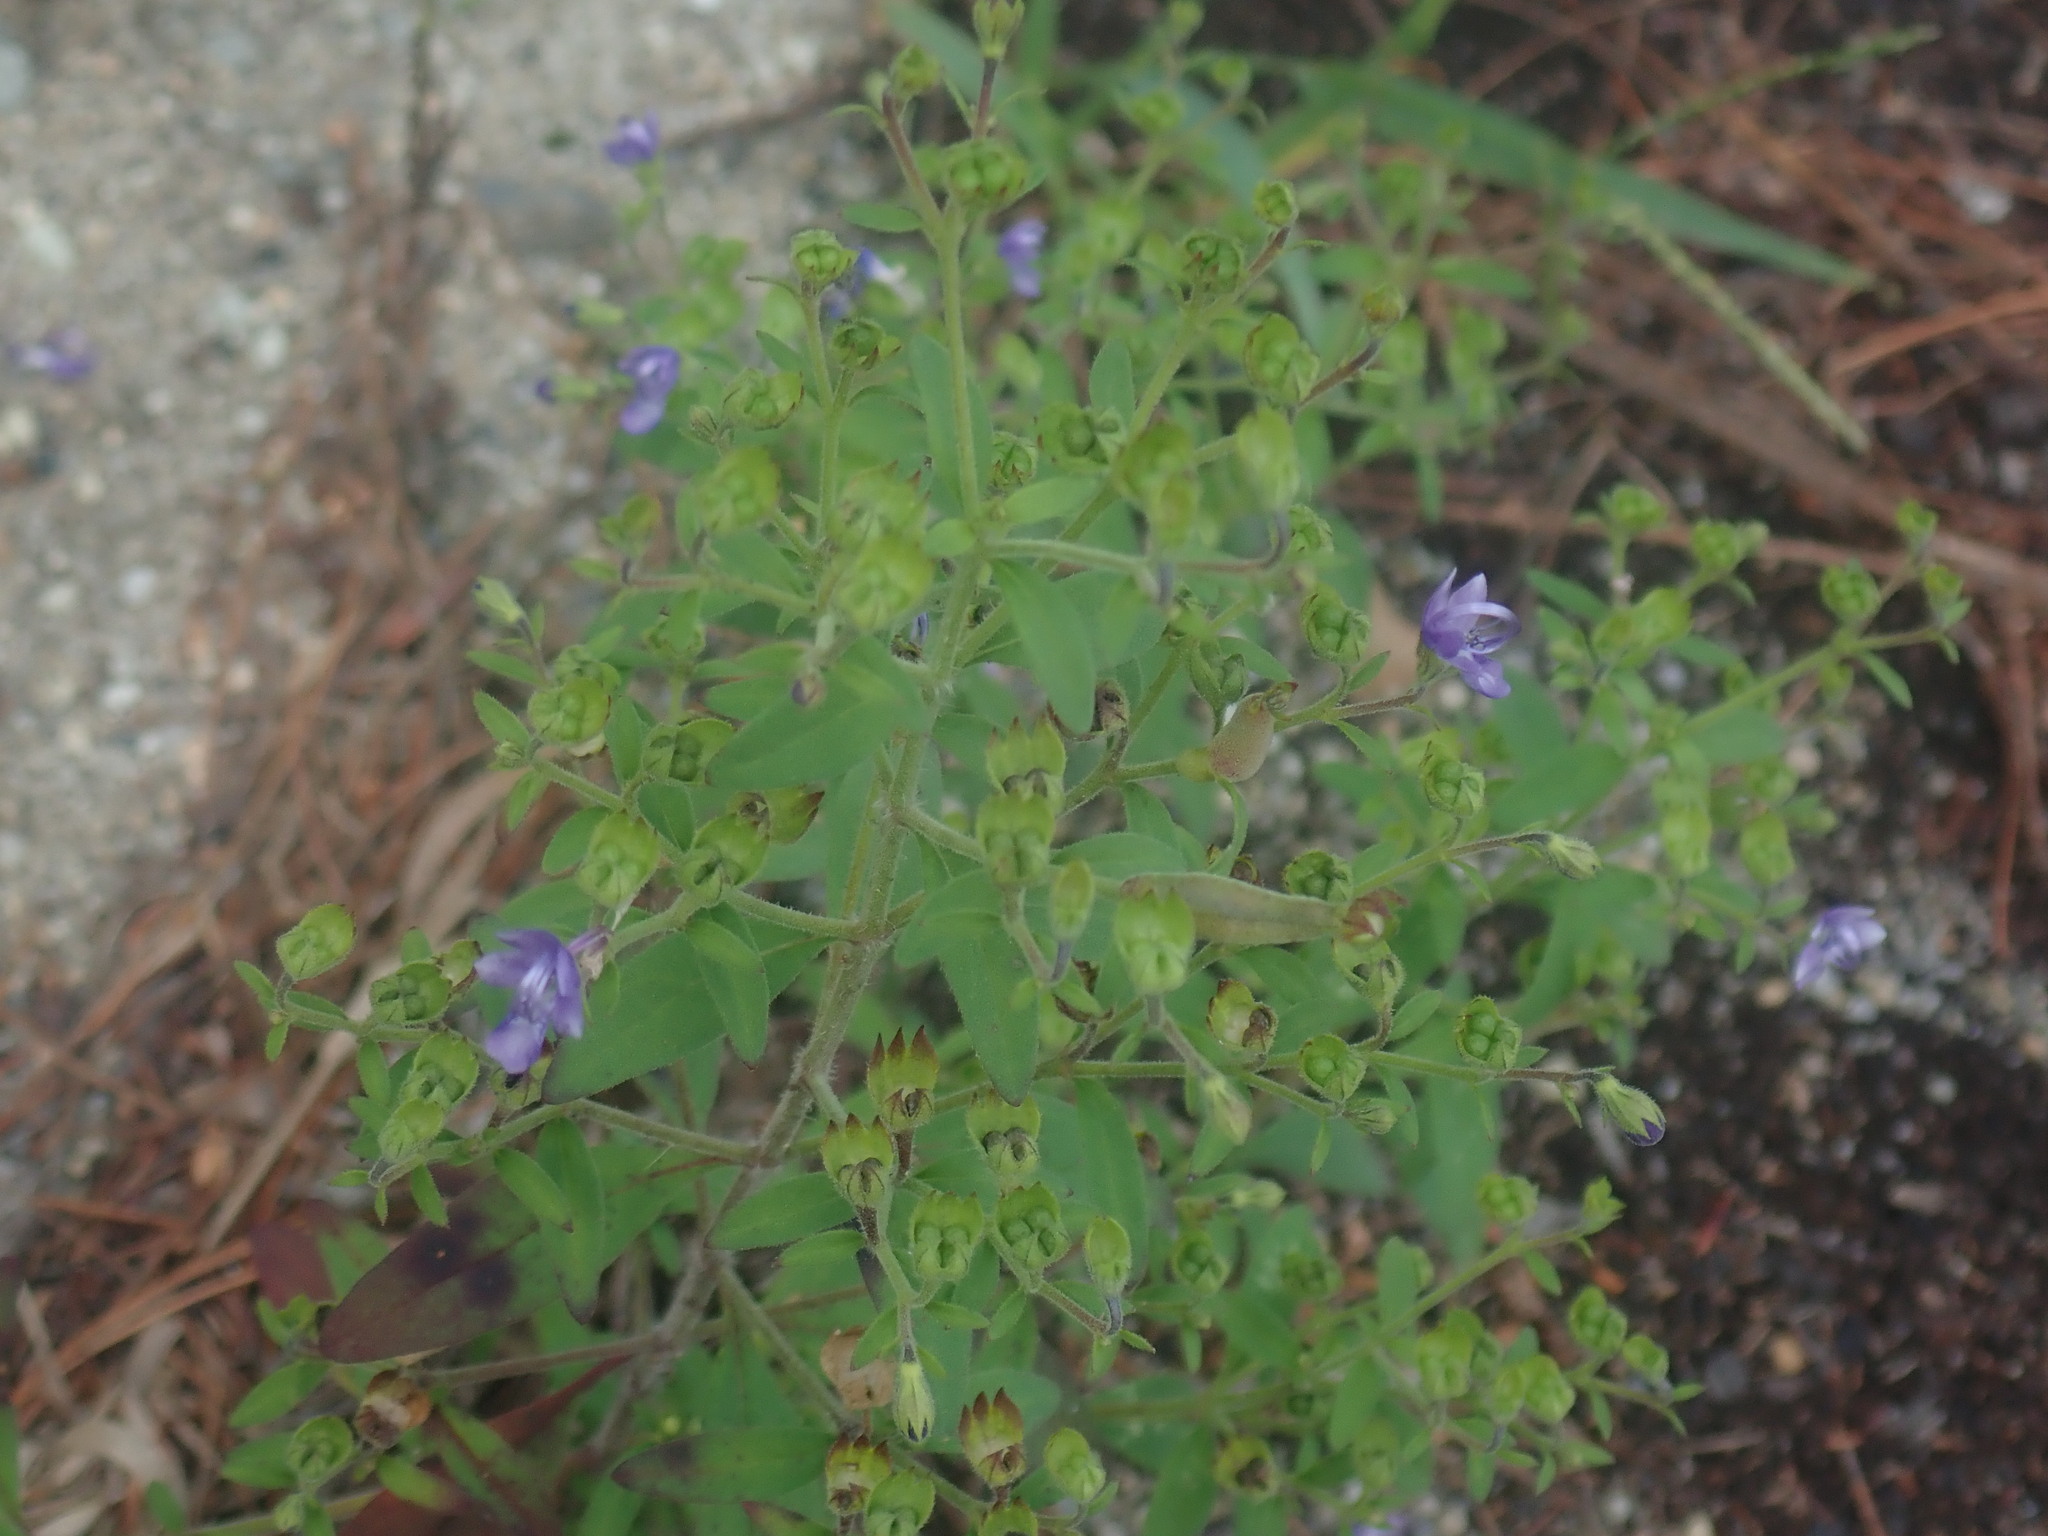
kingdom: Plantae
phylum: Tracheophyta
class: Magnoliopsida
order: Lamiales
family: Lamiaceae
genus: Trichostema
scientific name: Trichostema dichotomum
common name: Bastard pennyroyal
